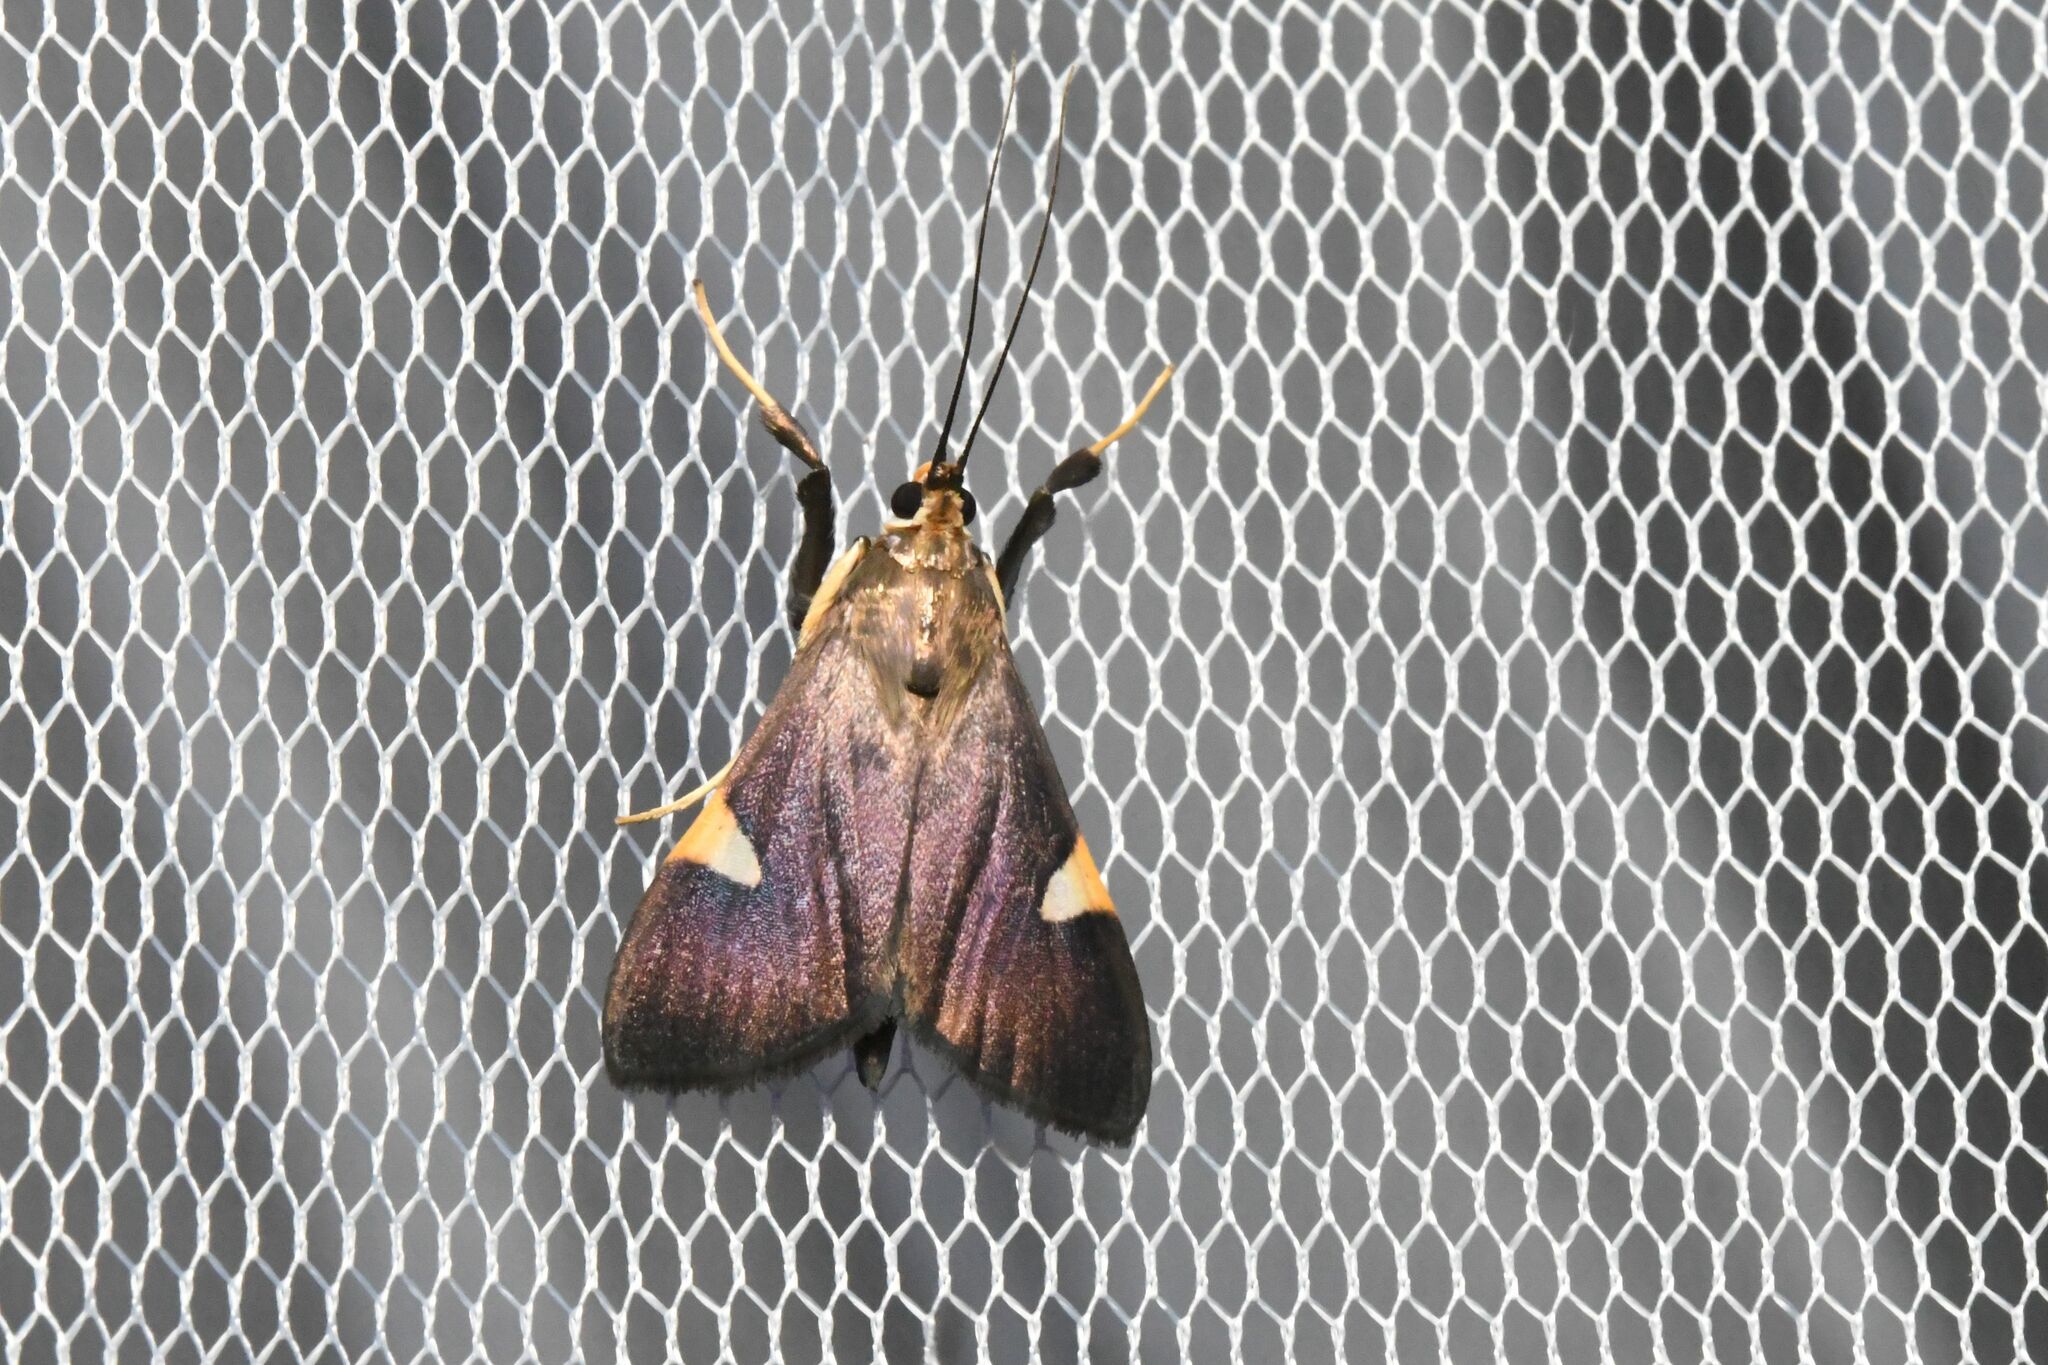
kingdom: Animalia
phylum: Arthropoda
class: Insecta
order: Lepidoptera
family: Crambidae
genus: Ulopeza
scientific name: Ulopeza conigeralis
